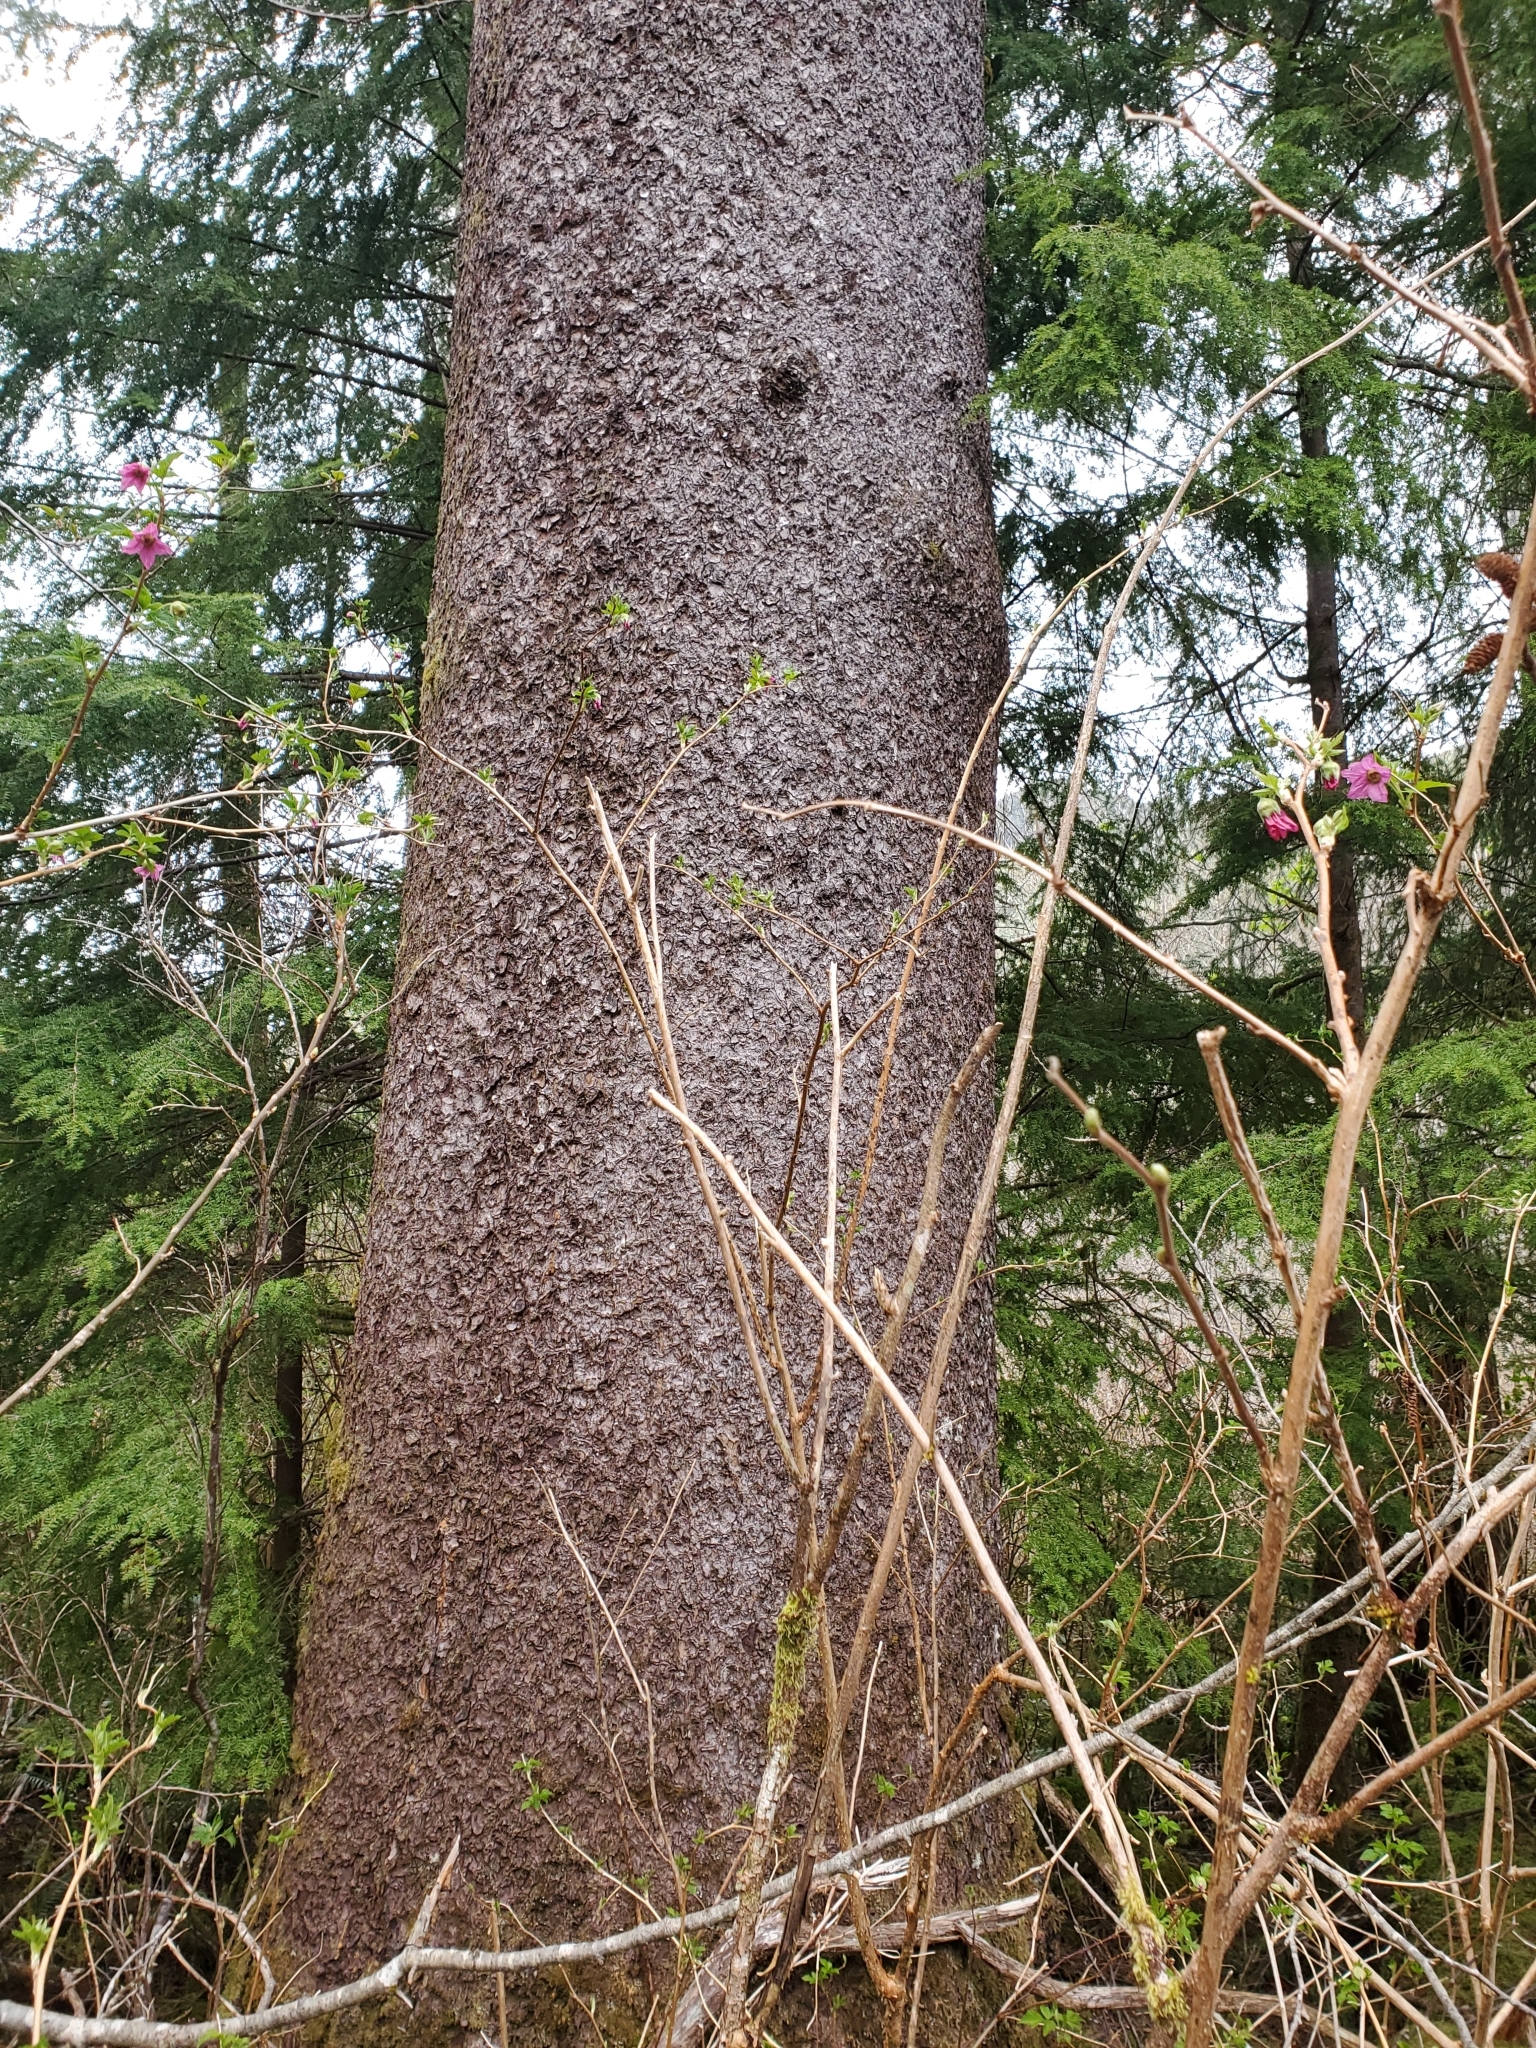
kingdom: Plantae
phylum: Tracheophyta
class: Pinopsida
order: Pinales
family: Pinaceae
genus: Picea
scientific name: Picea sitchensis
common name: Sitka spruce
